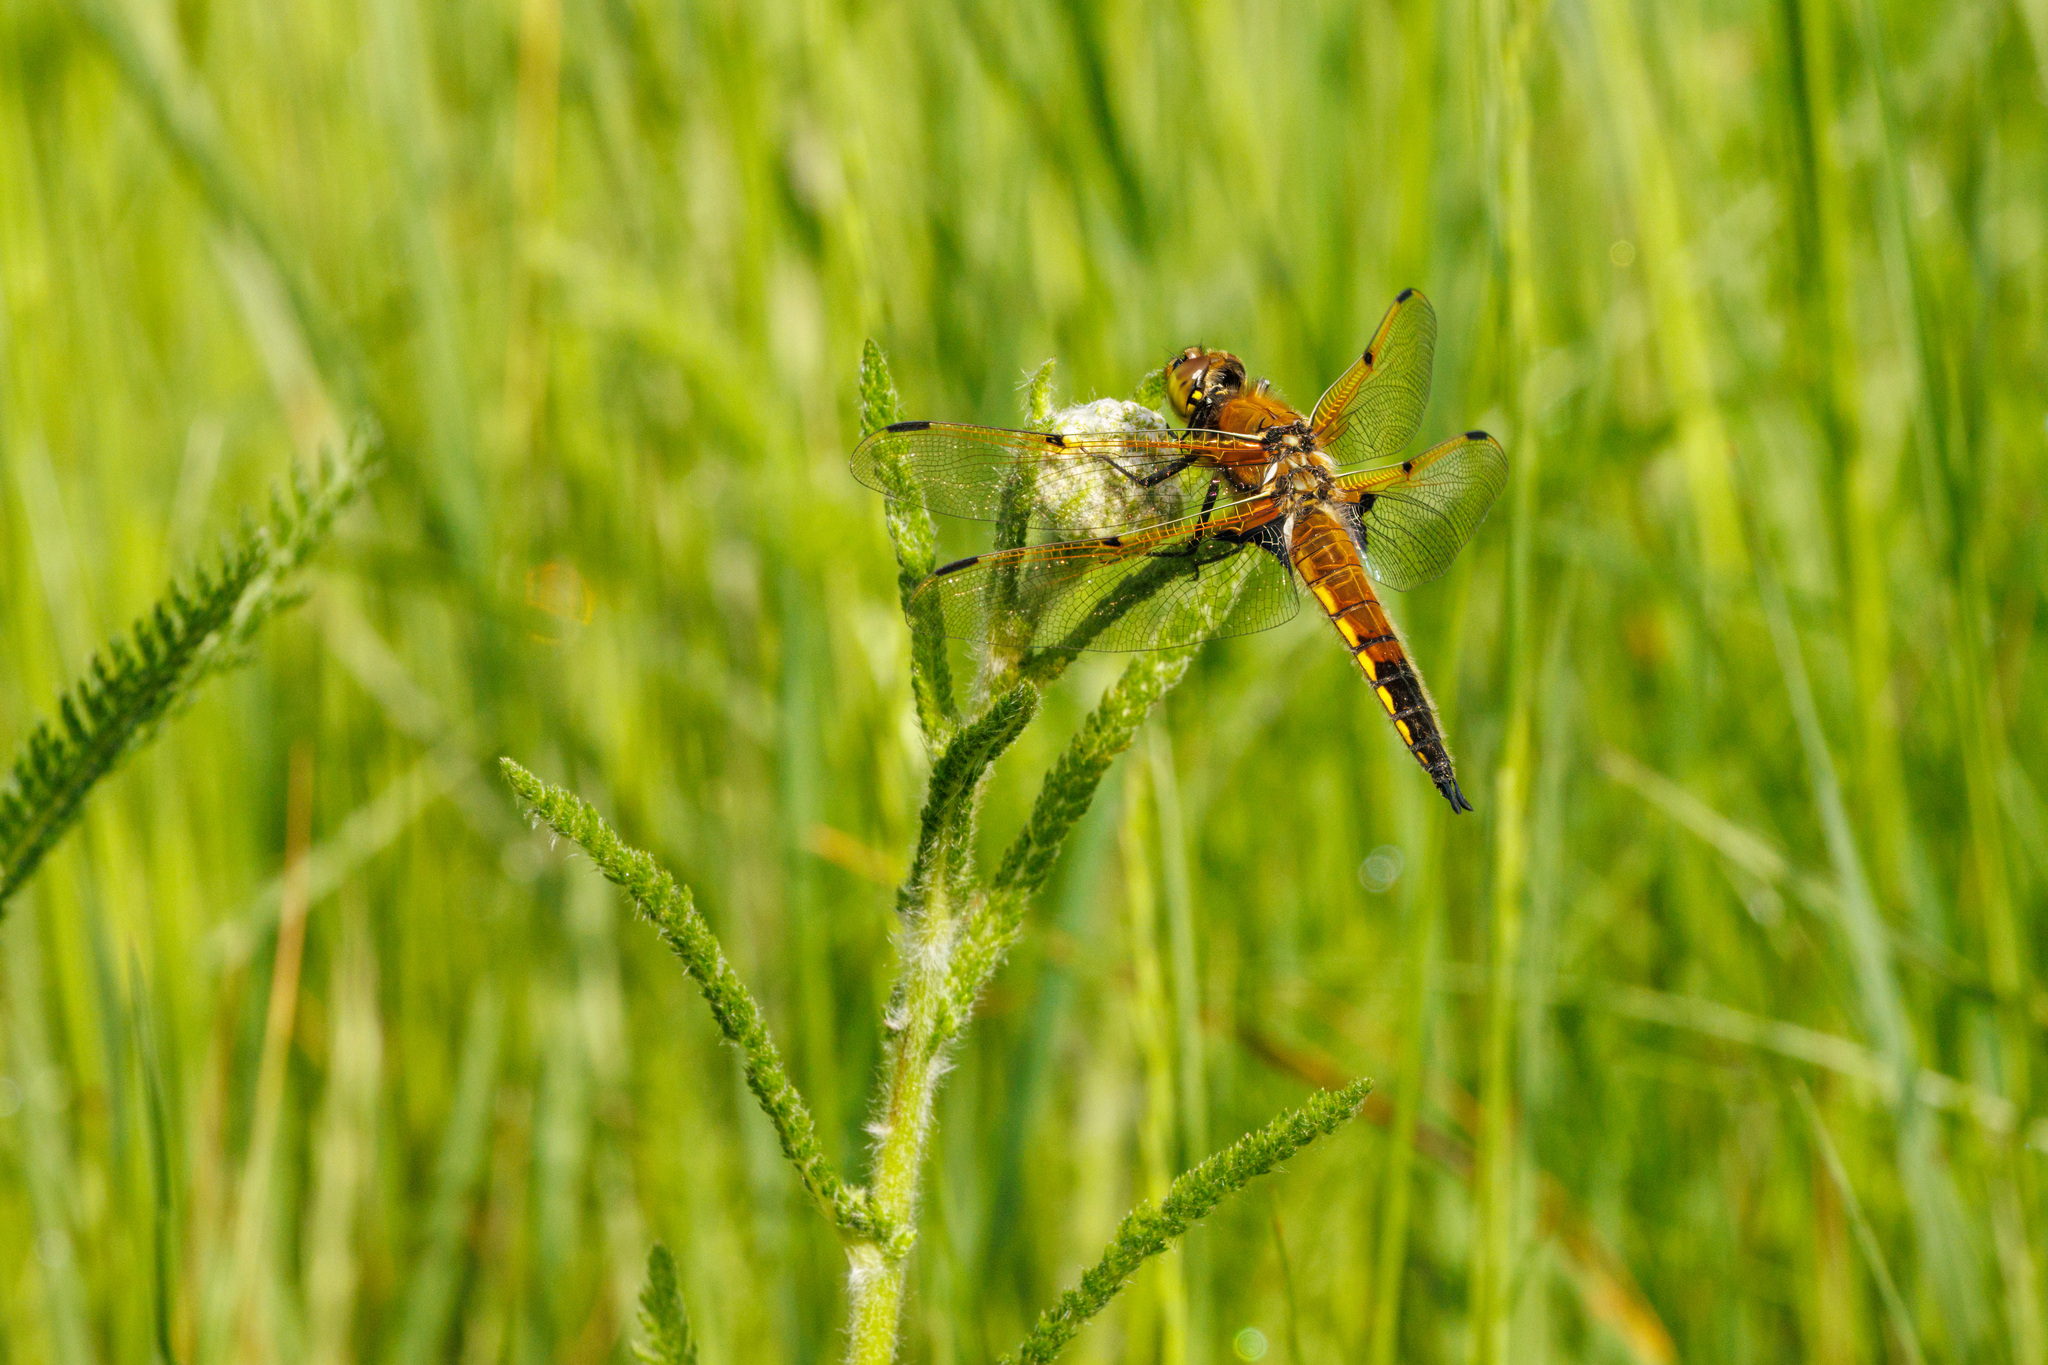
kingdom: Animalia
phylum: Arthropoda
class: Insecta
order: Odonata
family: Libellulidae
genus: Libellula
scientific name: Libellula quadrimaculata
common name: Four-spotted chaser
